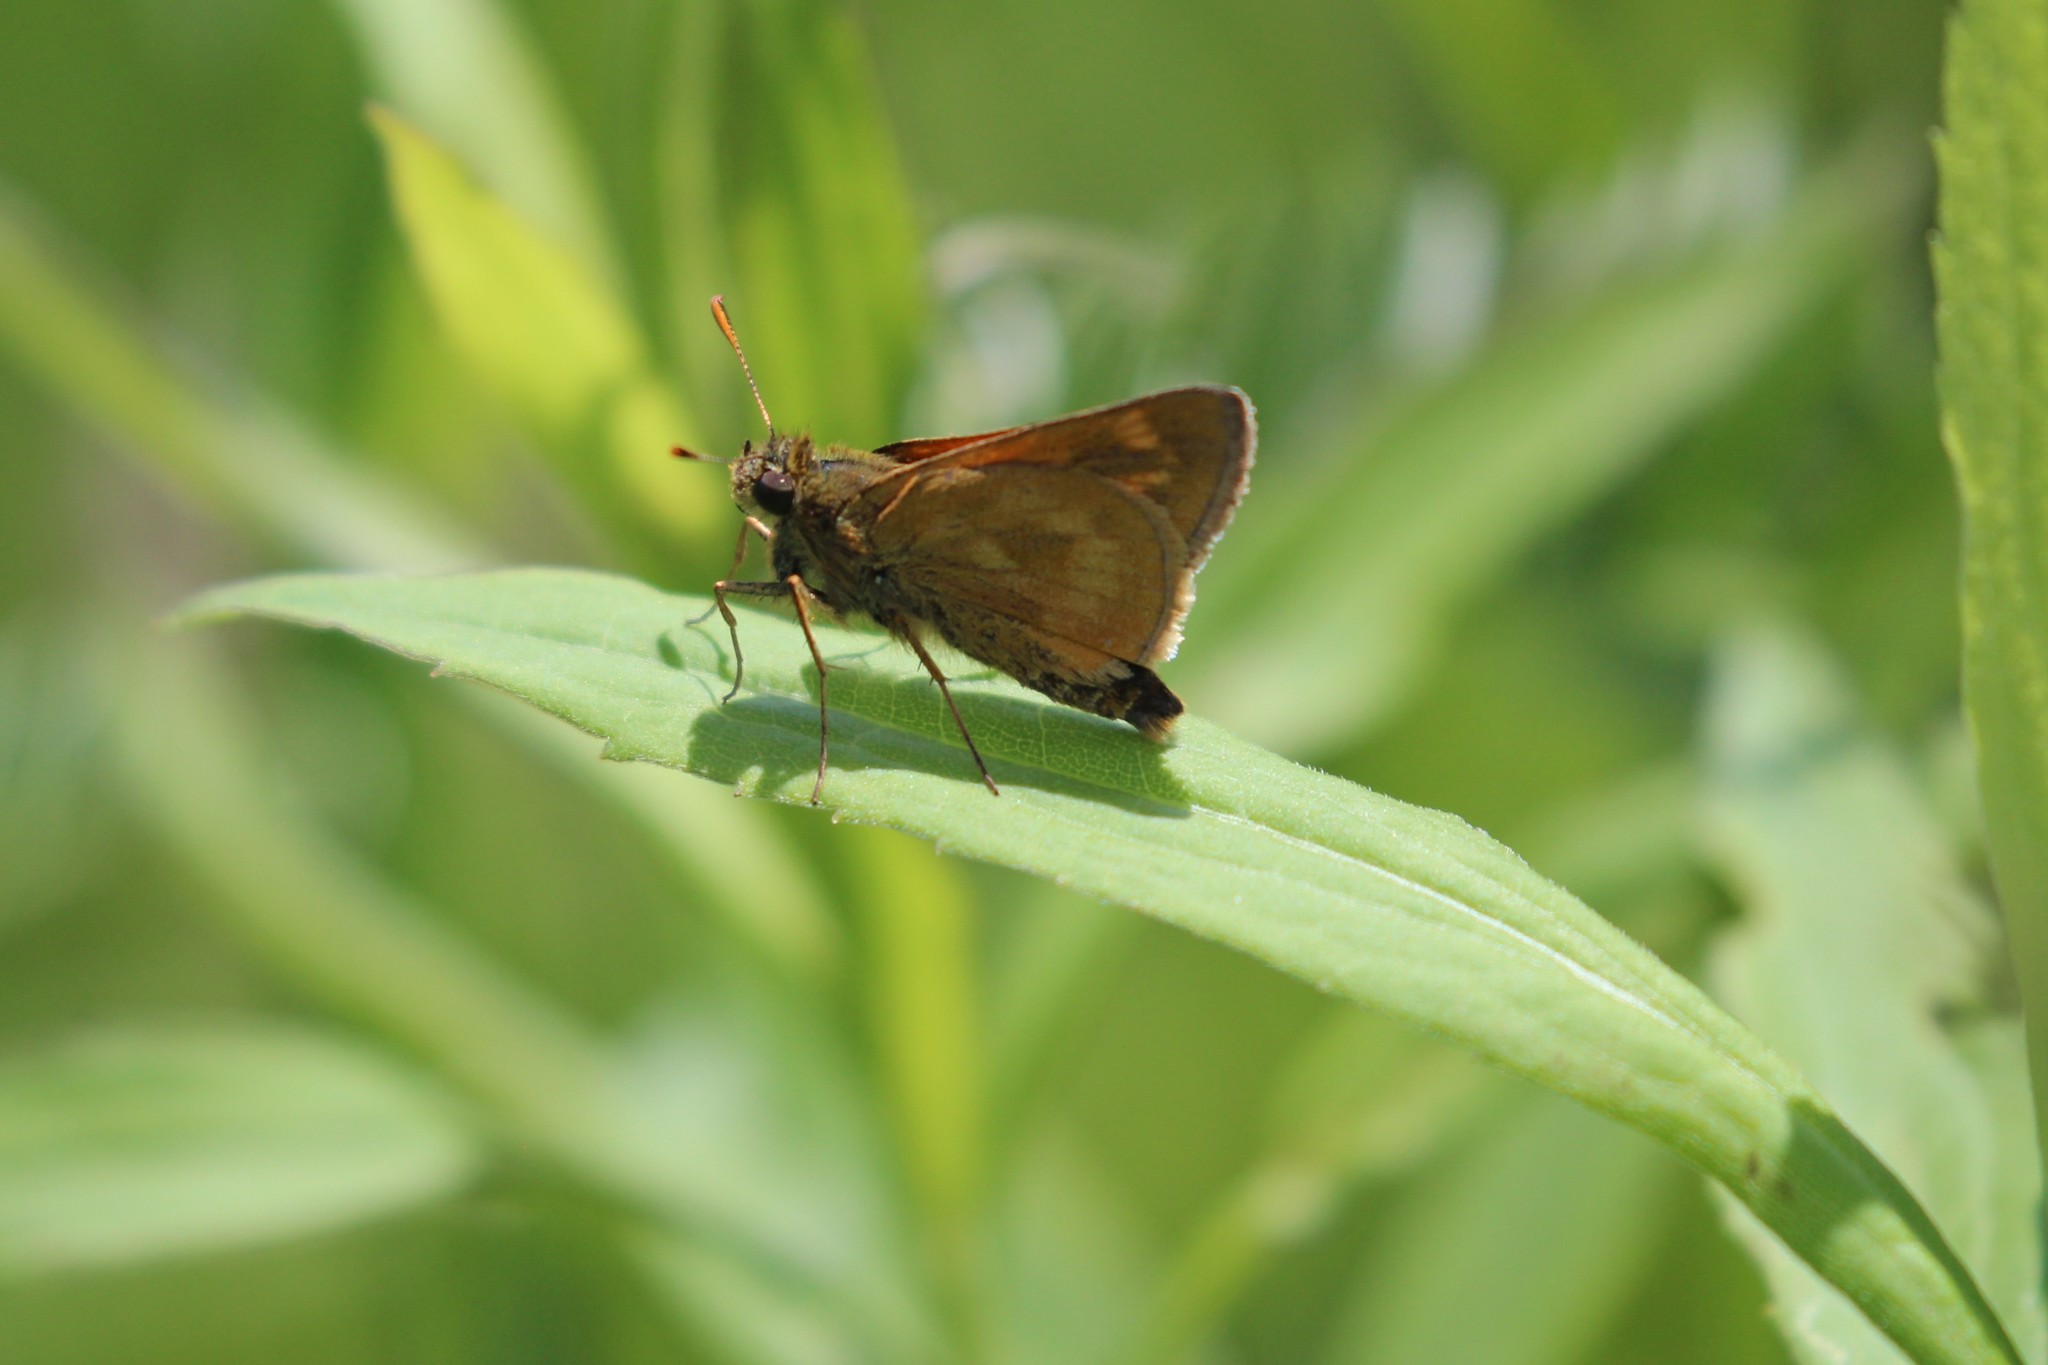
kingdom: Animalia
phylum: Arthropoda
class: Insecta
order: Lepidoptera
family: Hesperiidae
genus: Polites
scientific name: Polites mystic
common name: Long dash
